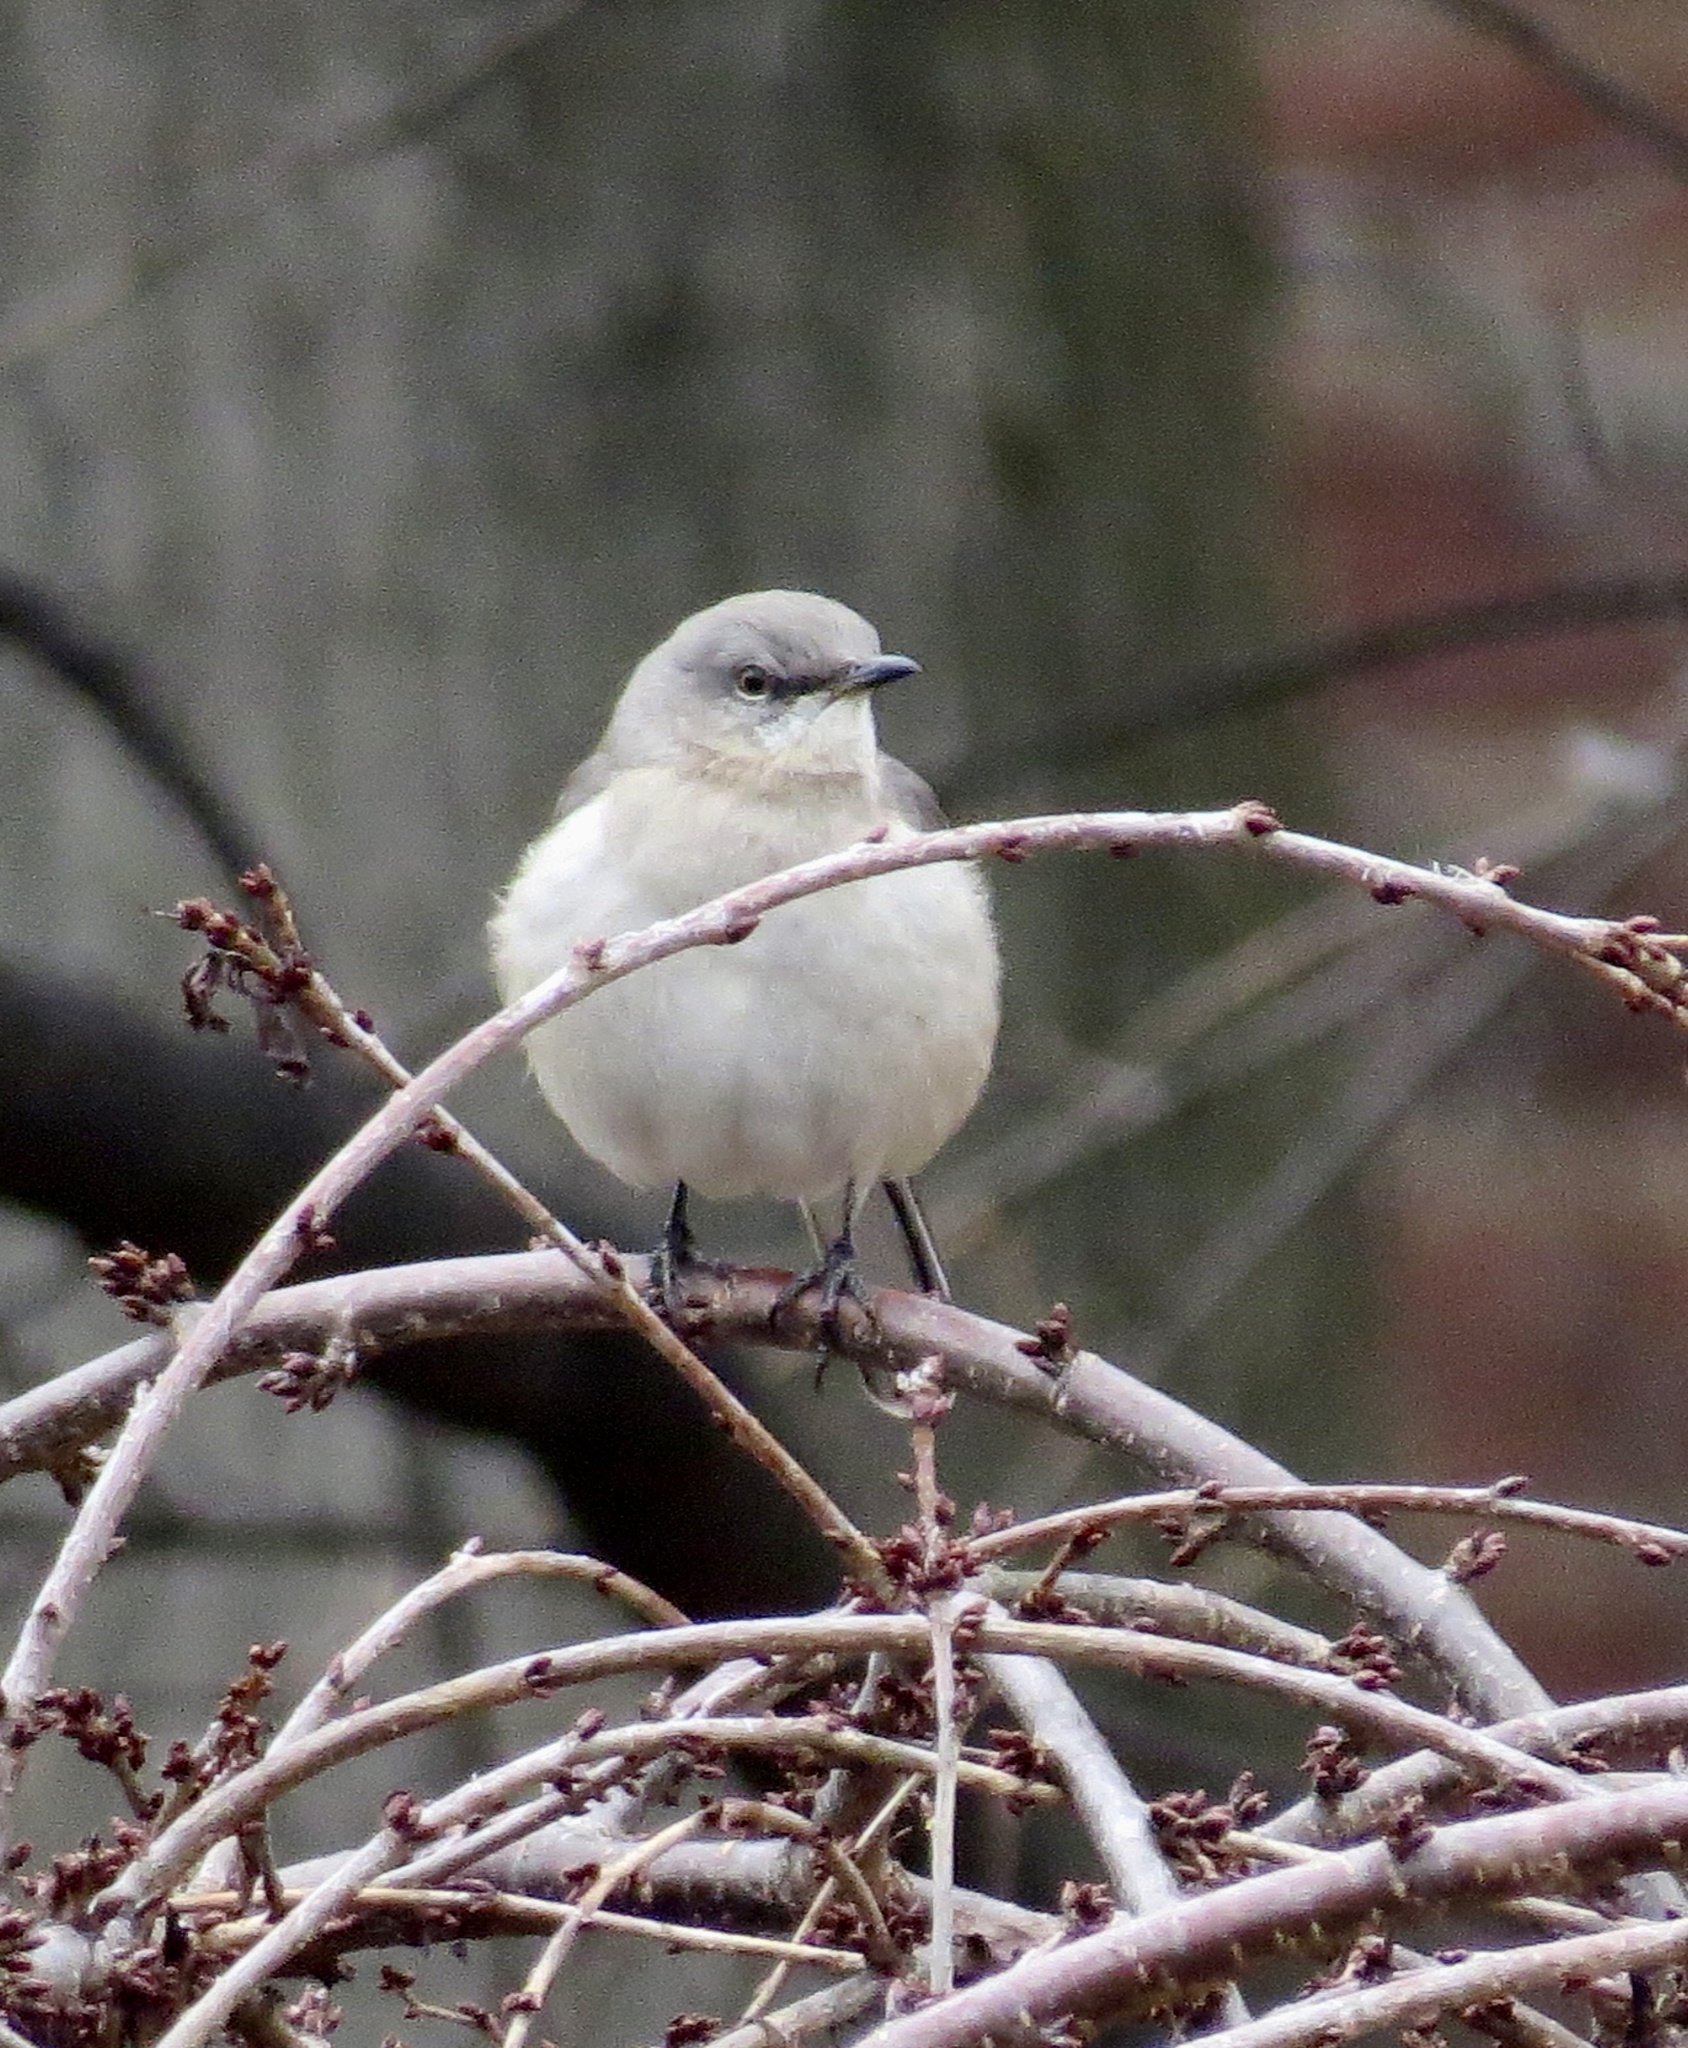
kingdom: Animalia
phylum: Chordata
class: Aves
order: Passeriformes
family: Mimidae
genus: Mimus
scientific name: Mimus polyglottos
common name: Northern mockingbird
